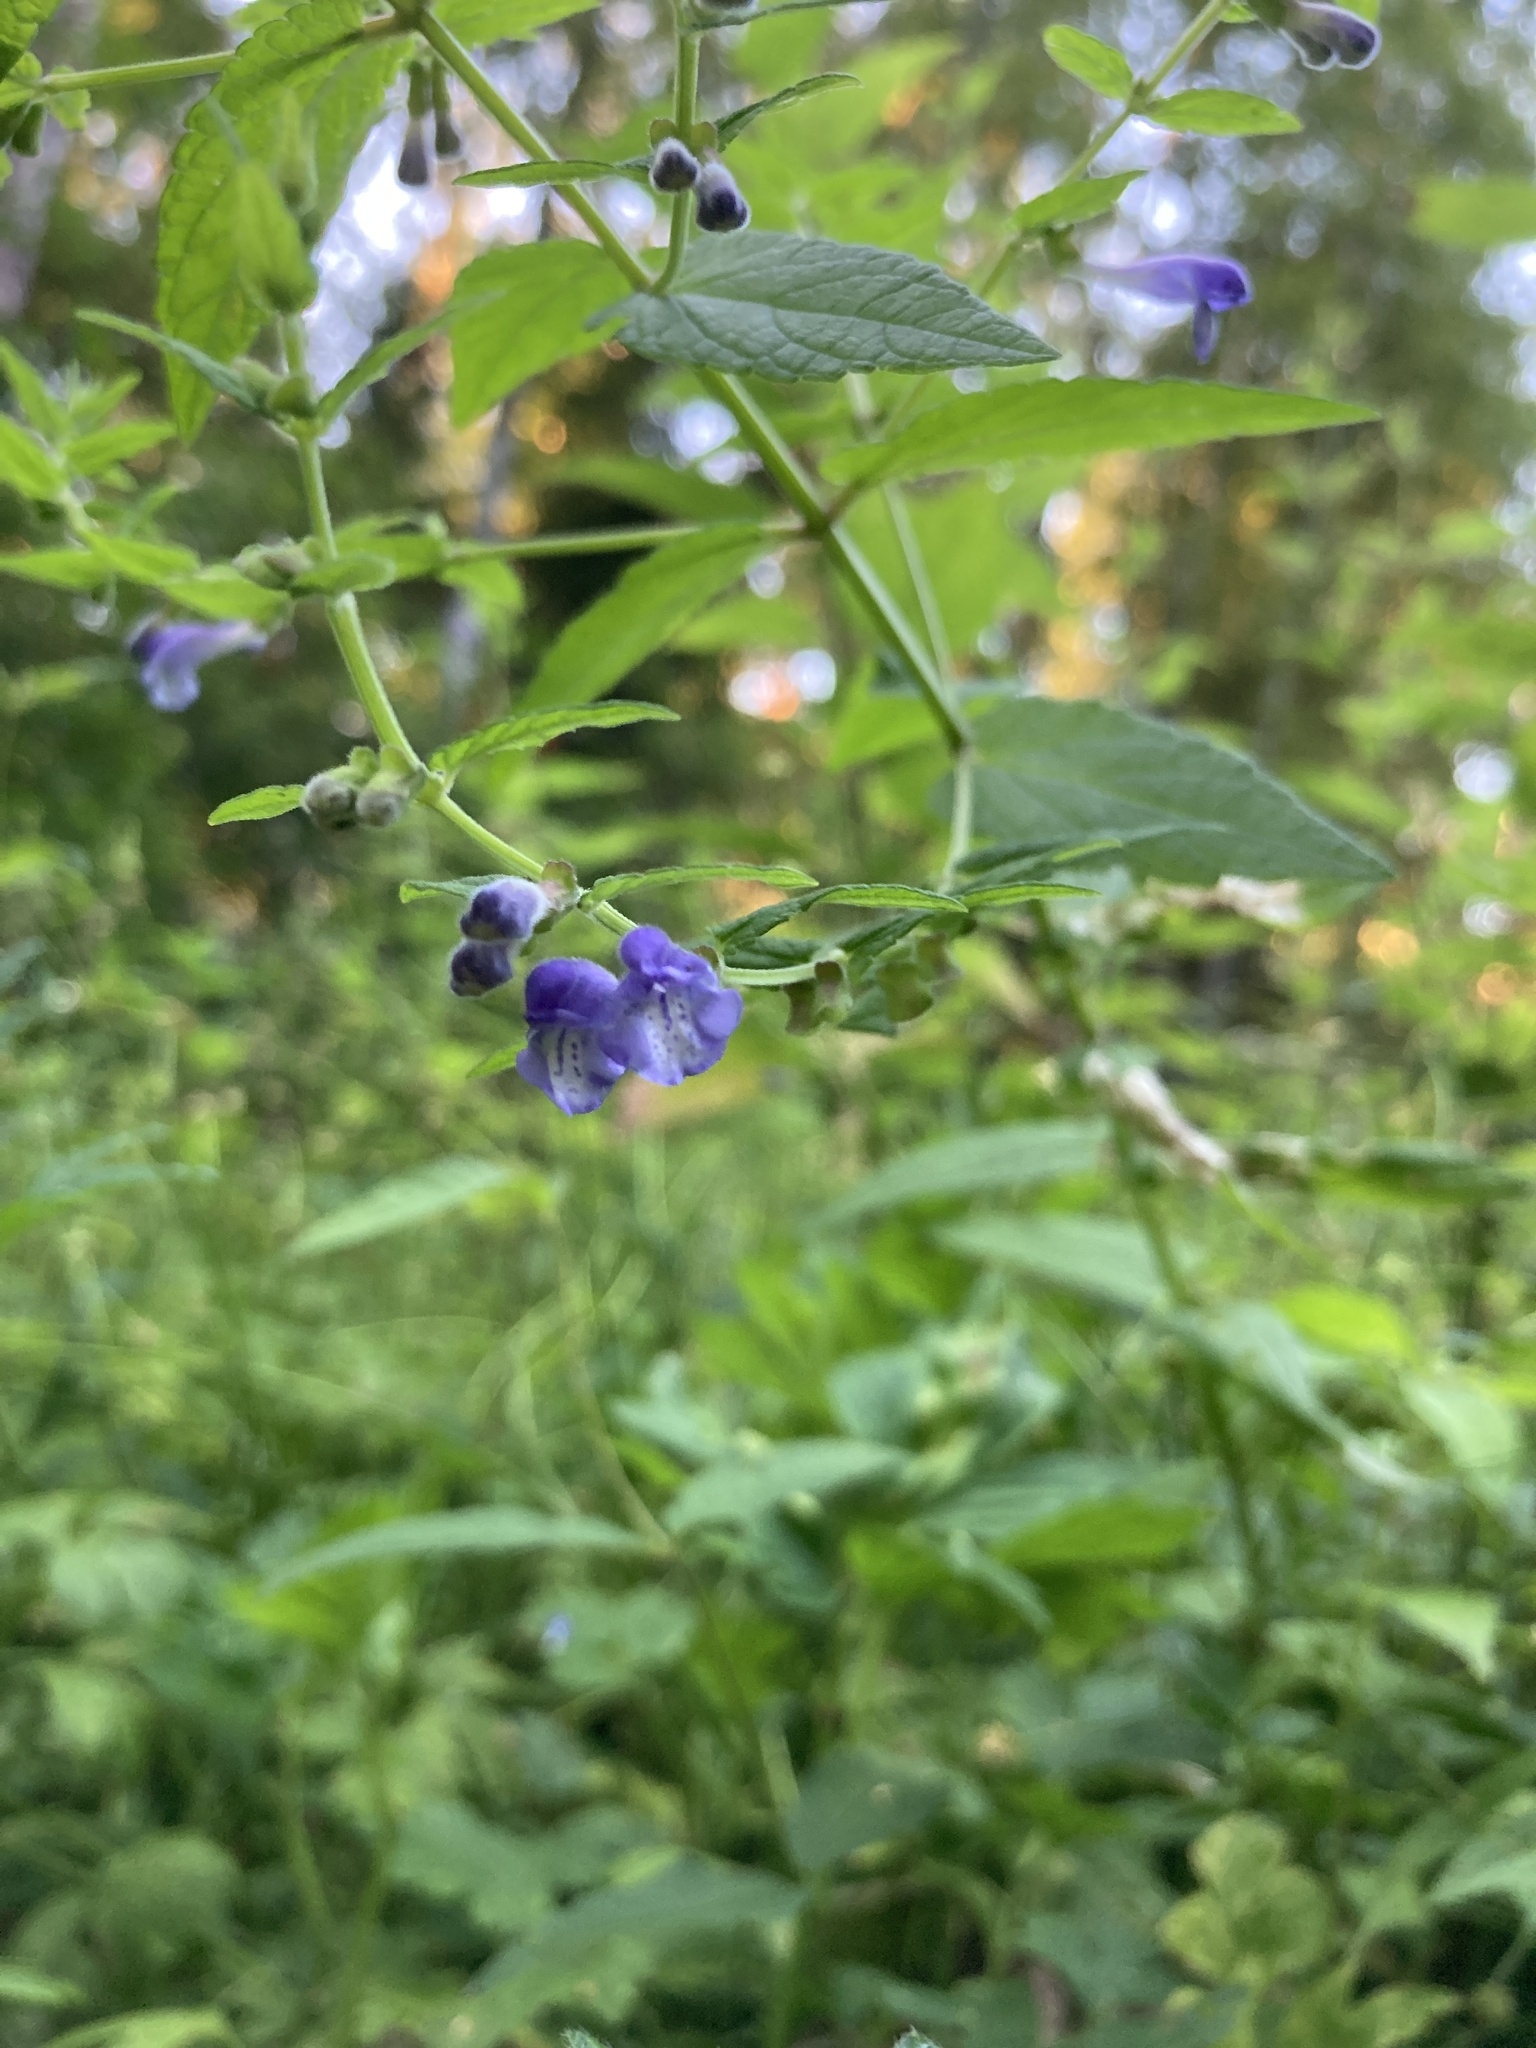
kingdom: Plantae
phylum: Tracheophyta
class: Magnoliopsida
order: Lamiales
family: Lamiaceae
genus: Scutellaria
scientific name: Scutellaria galericulata
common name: Skullcap
